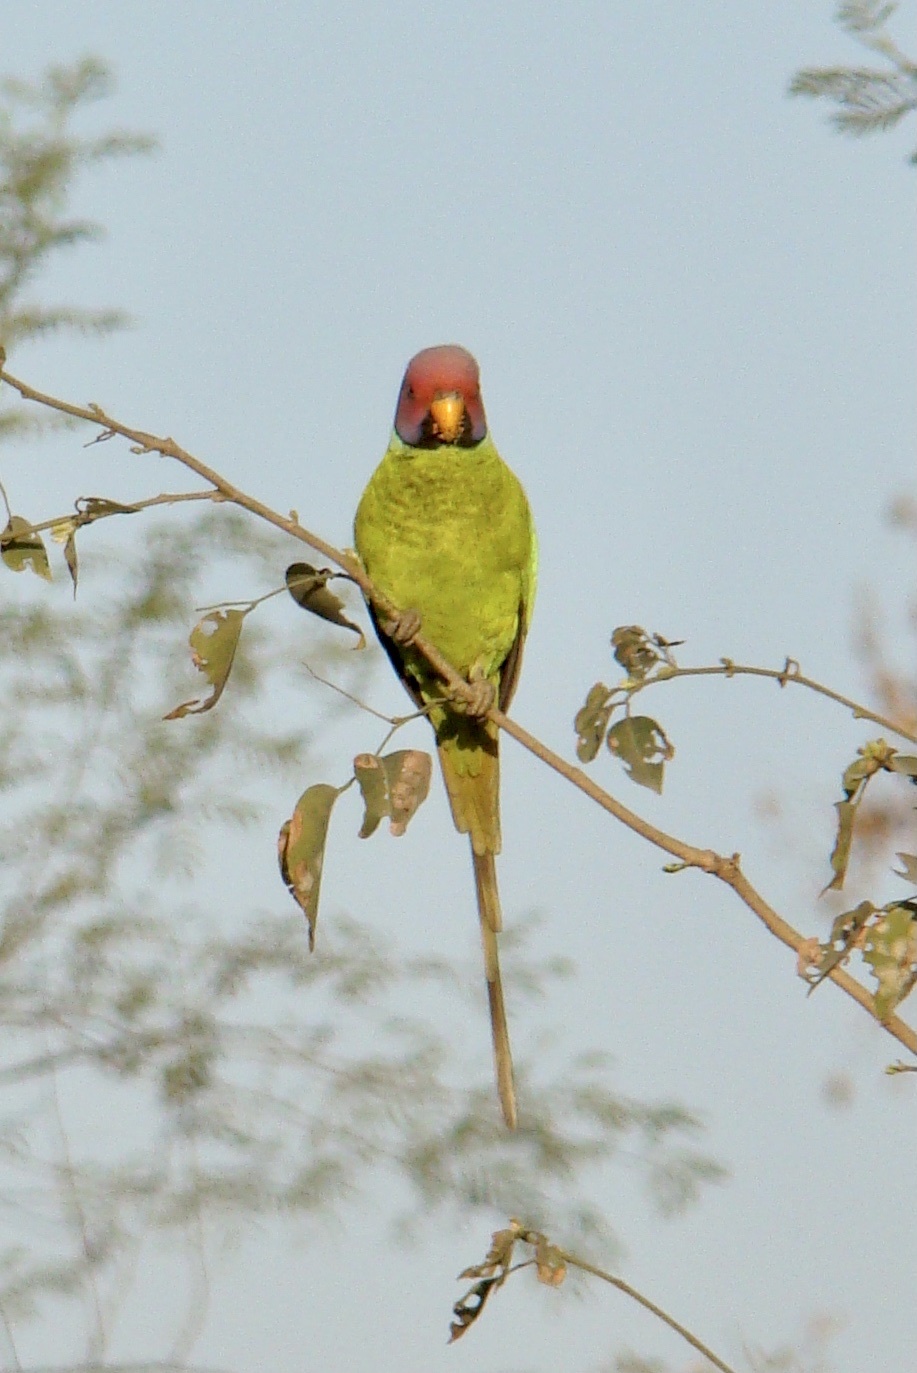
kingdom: Animalia
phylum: Chordata
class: Aves
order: Psittaciformes
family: Psittacidae
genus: Psittacula
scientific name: Psittacula cyanocephala
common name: Plum-headed parakeet
